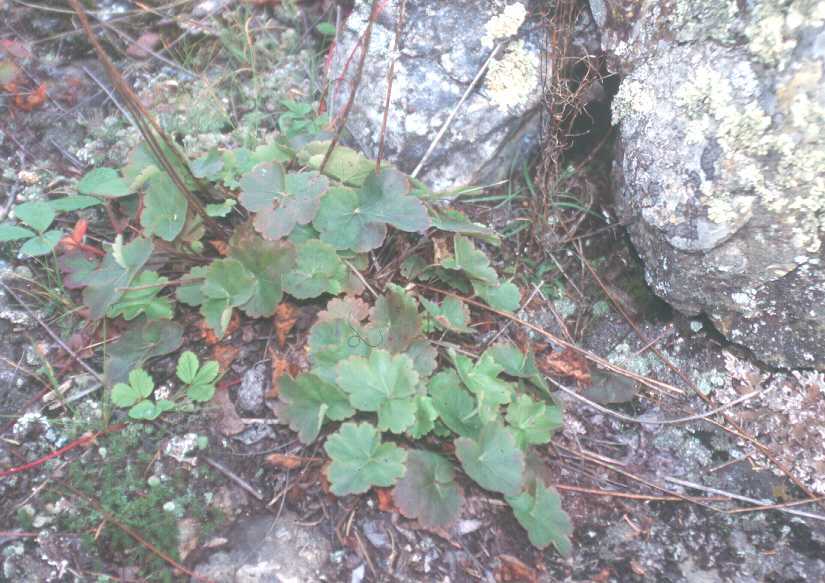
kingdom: Plantae
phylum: Tracheophyta
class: Magnoliopsida
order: Saxifragales
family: Saxifragaceae
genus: Heuchera
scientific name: Heuchera richardsonii
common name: Richardson's alumroot
